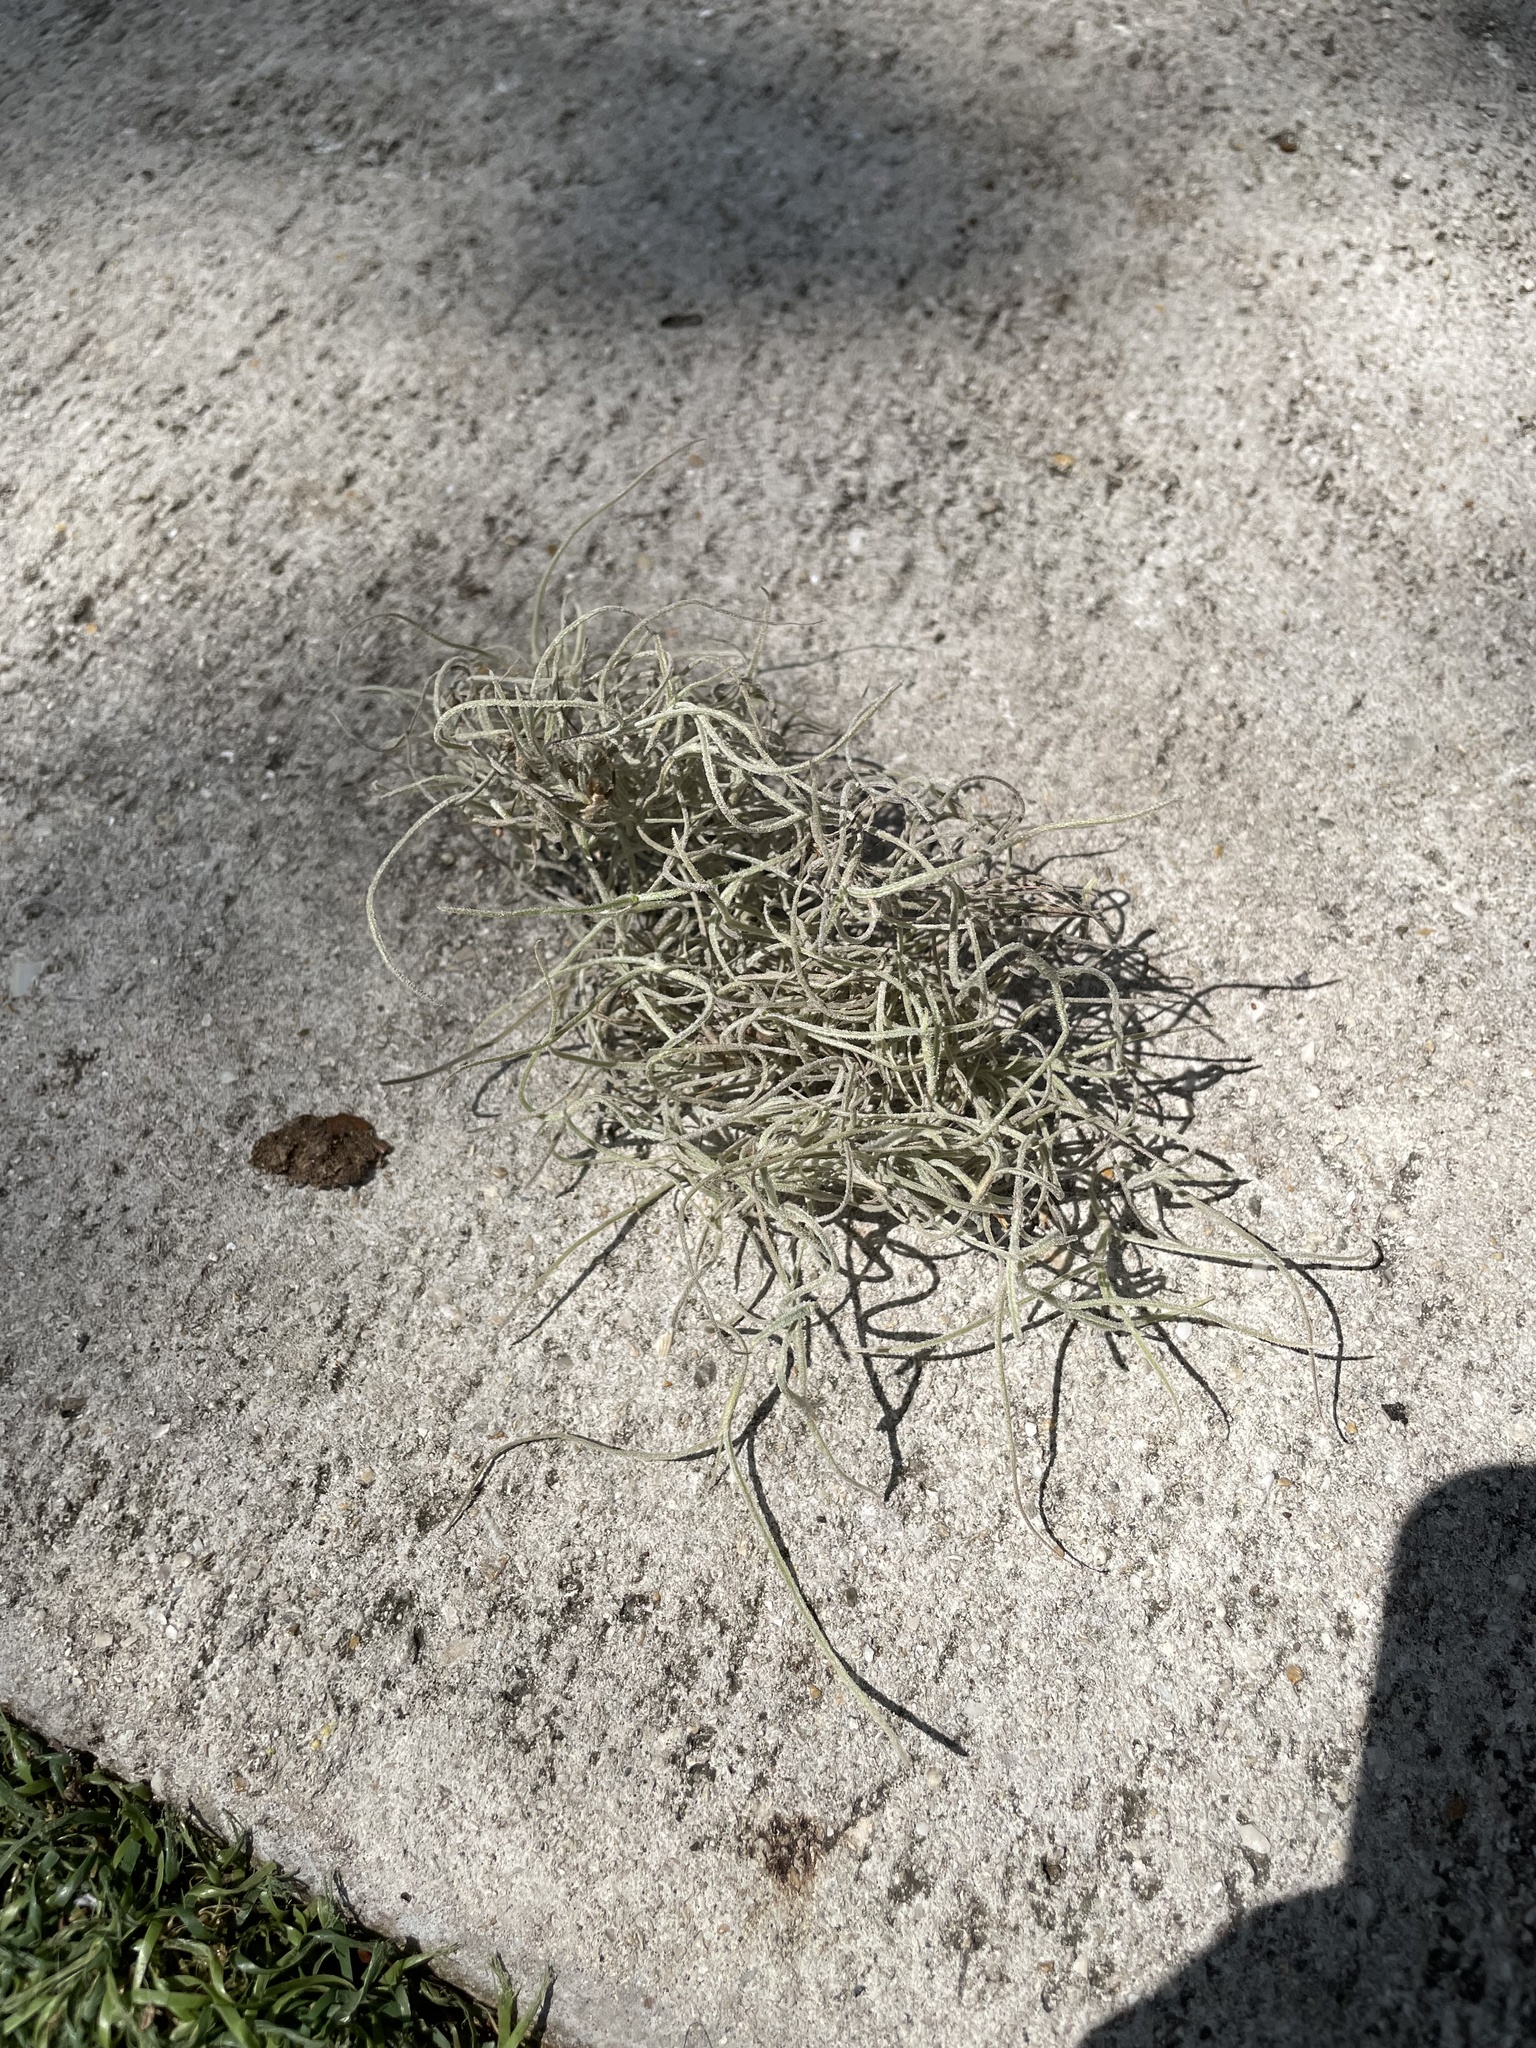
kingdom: Plantae
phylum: Tracheophyta
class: Liliopsida
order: Poales
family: Bromeliaceae
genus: Tillandsia
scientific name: Tillandsia usneoides
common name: Spanish moss
